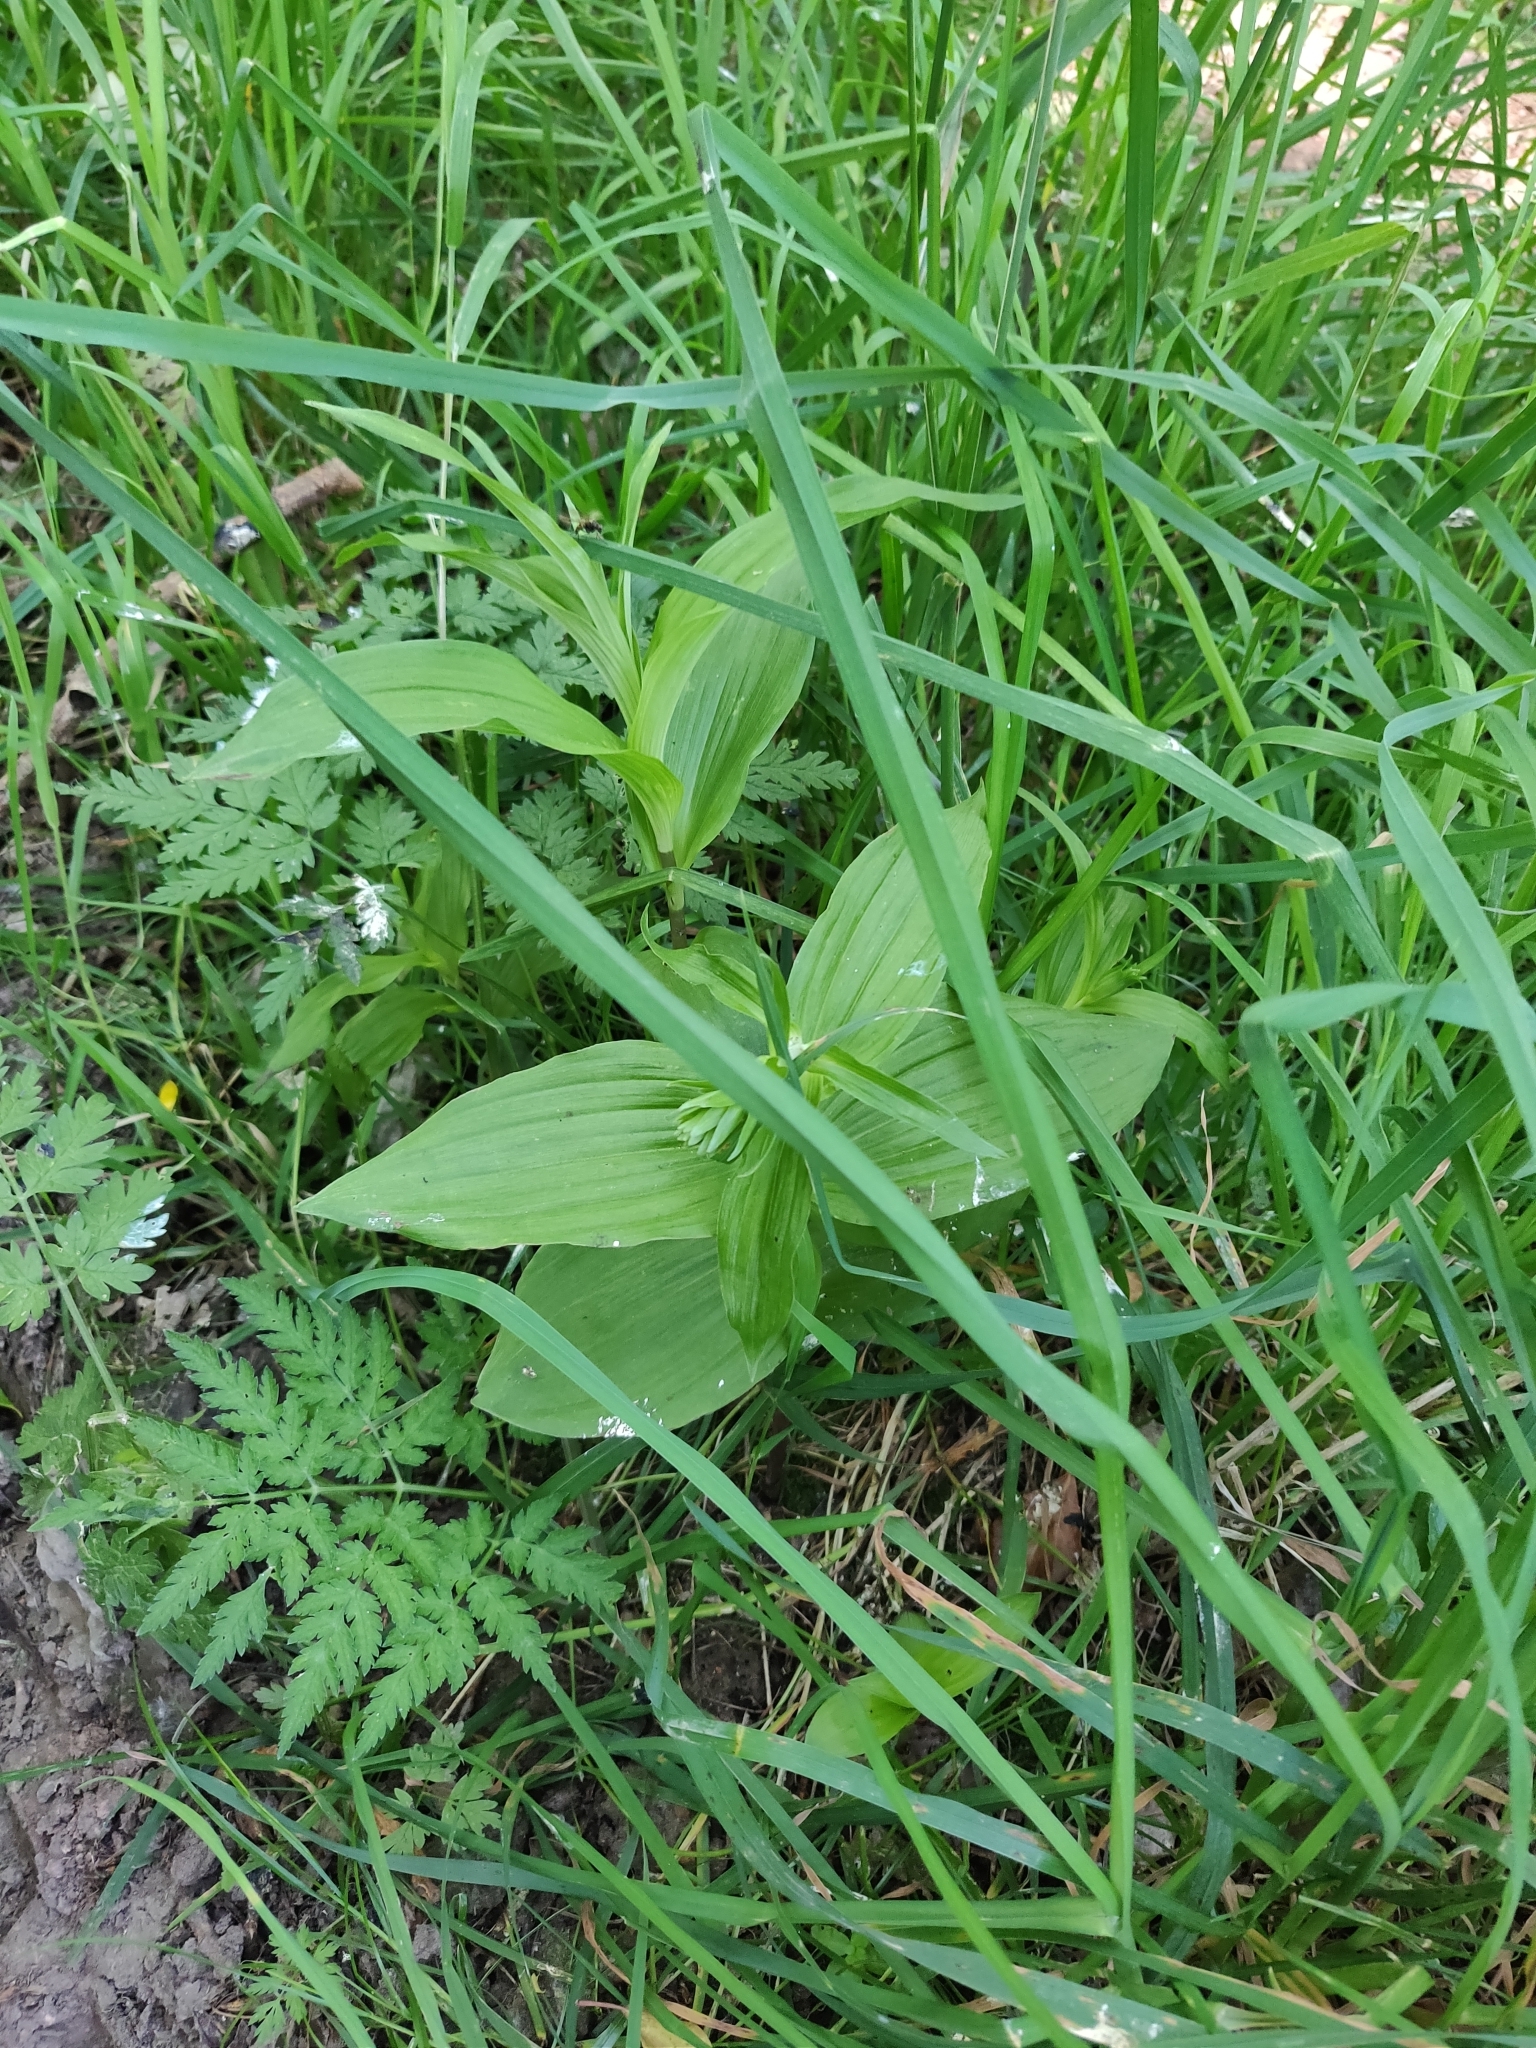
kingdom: Plantae
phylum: Tracheophyta
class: Liliopsida
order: Asparagales
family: Orchidaceae
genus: Epipactis
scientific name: Epipactis helleborine
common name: Broad-leaved helleborine
